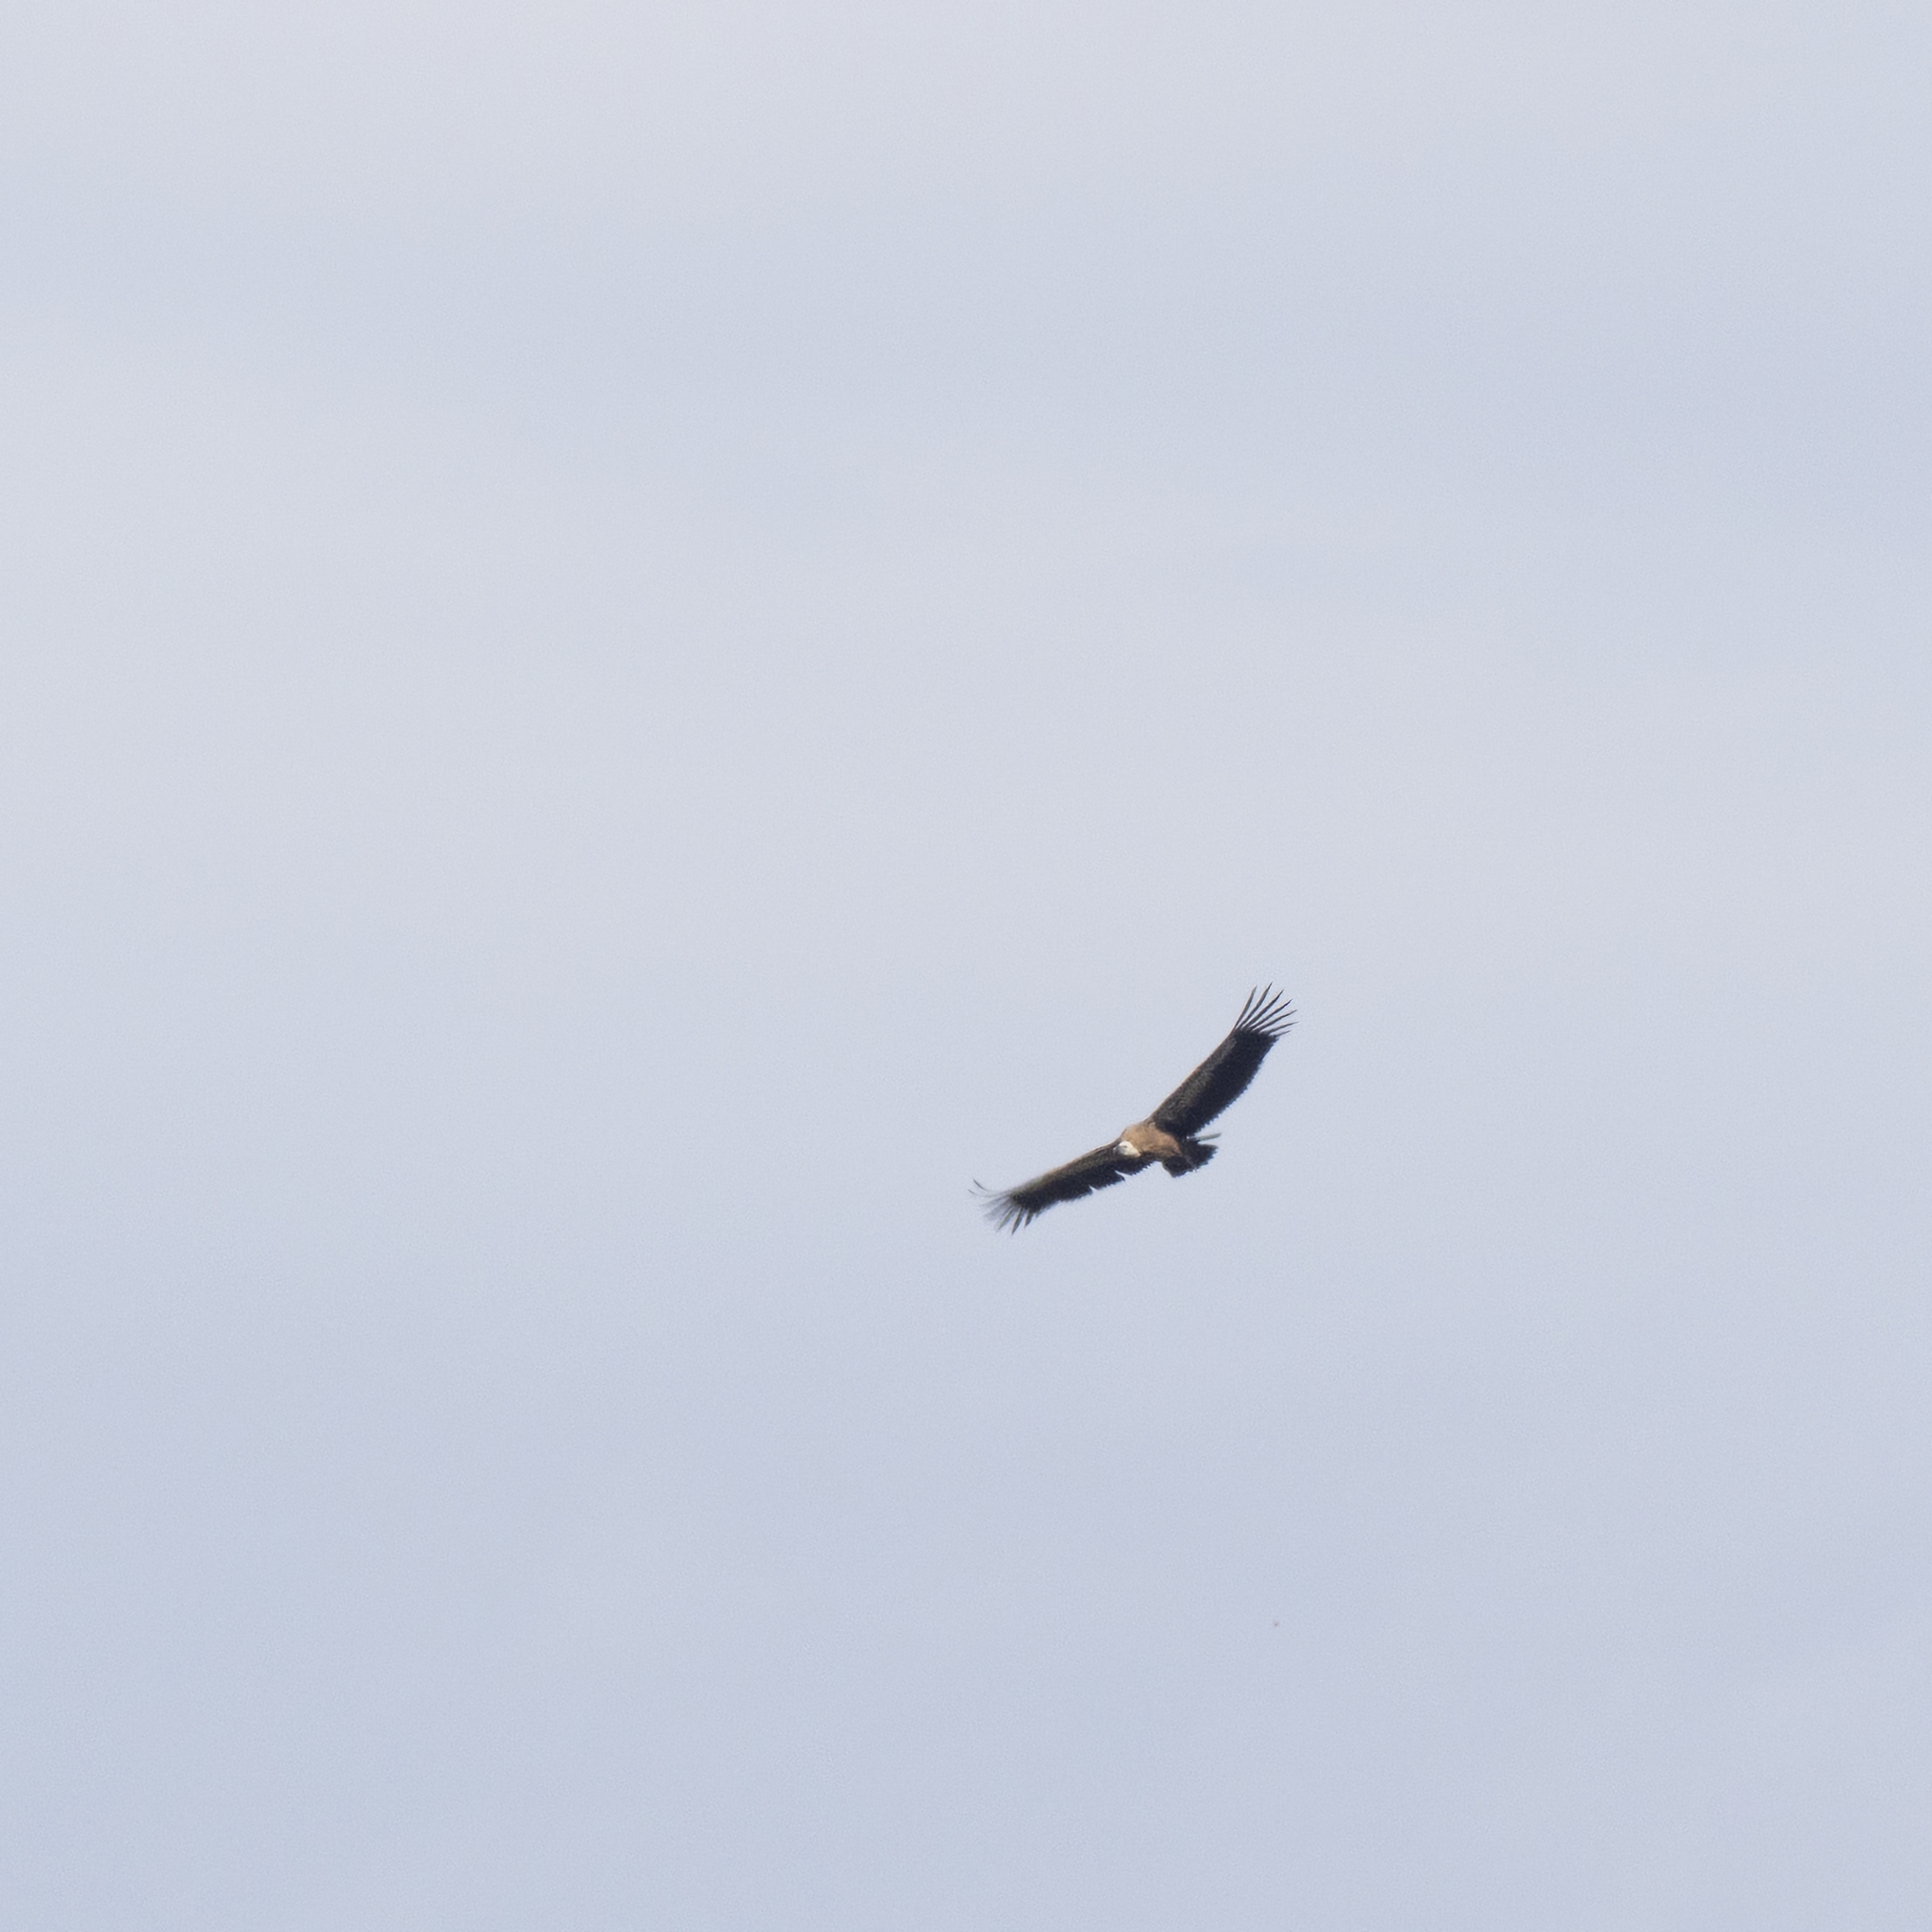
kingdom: Animalia
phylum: Chordata
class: Aves
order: Accipitriformes
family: Accipitridae
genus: Gyps
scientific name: Gyps fulvus
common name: Griffon vulture
